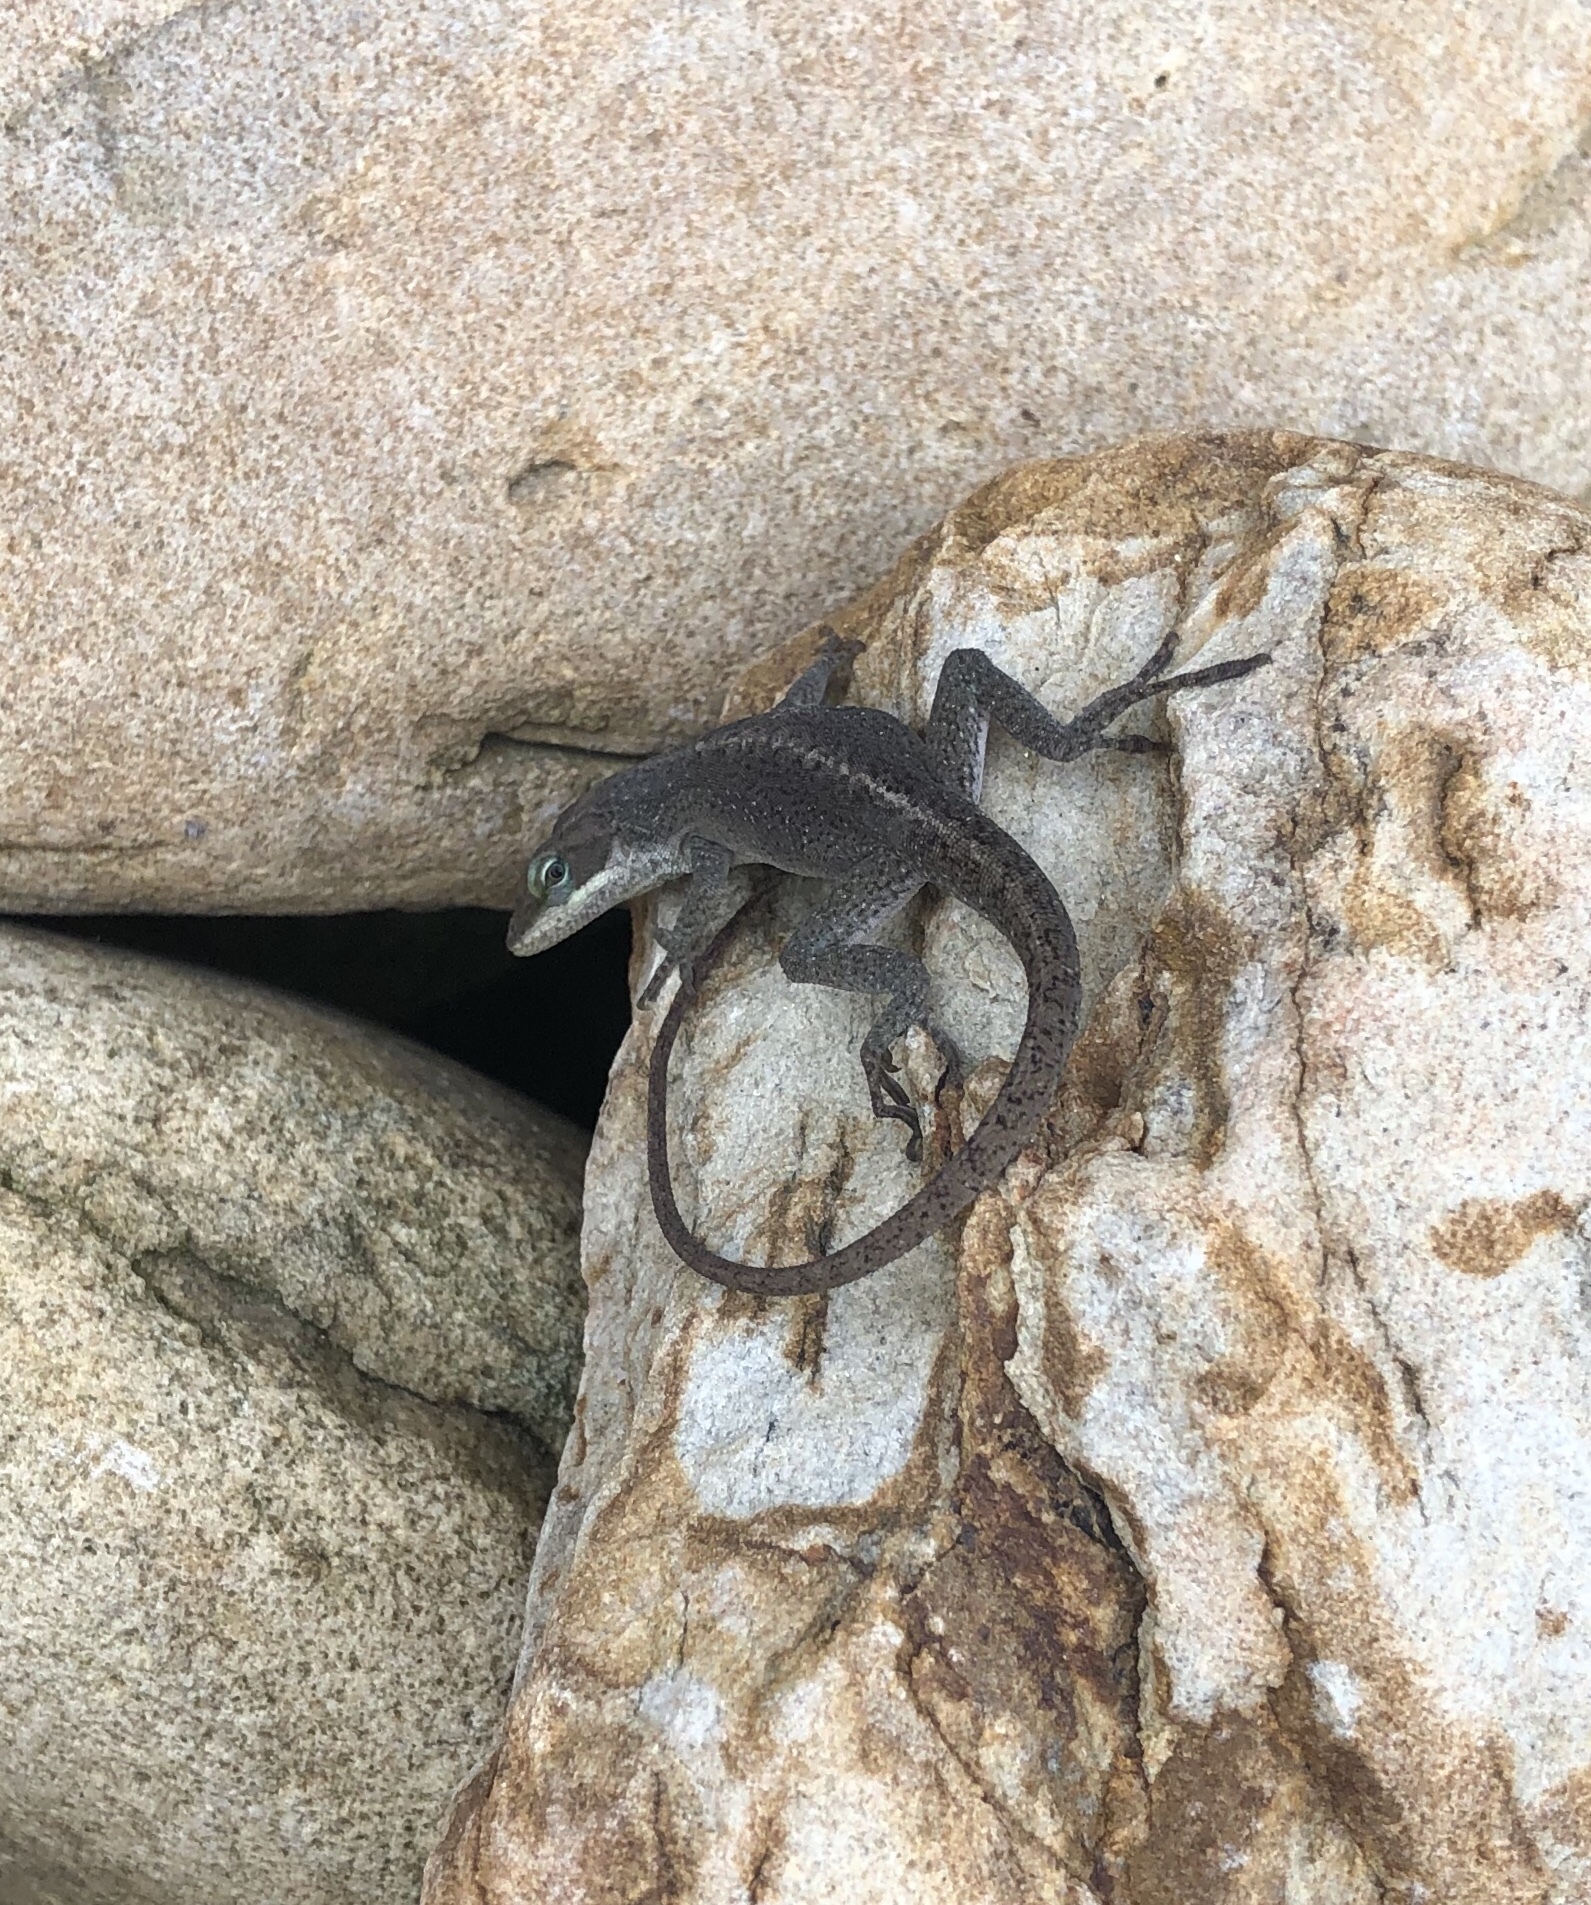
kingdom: Animalia
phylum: Chordata
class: Squamata
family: Dactyloidae
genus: Anolis
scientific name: Anolis carolinensis
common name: Green anole
